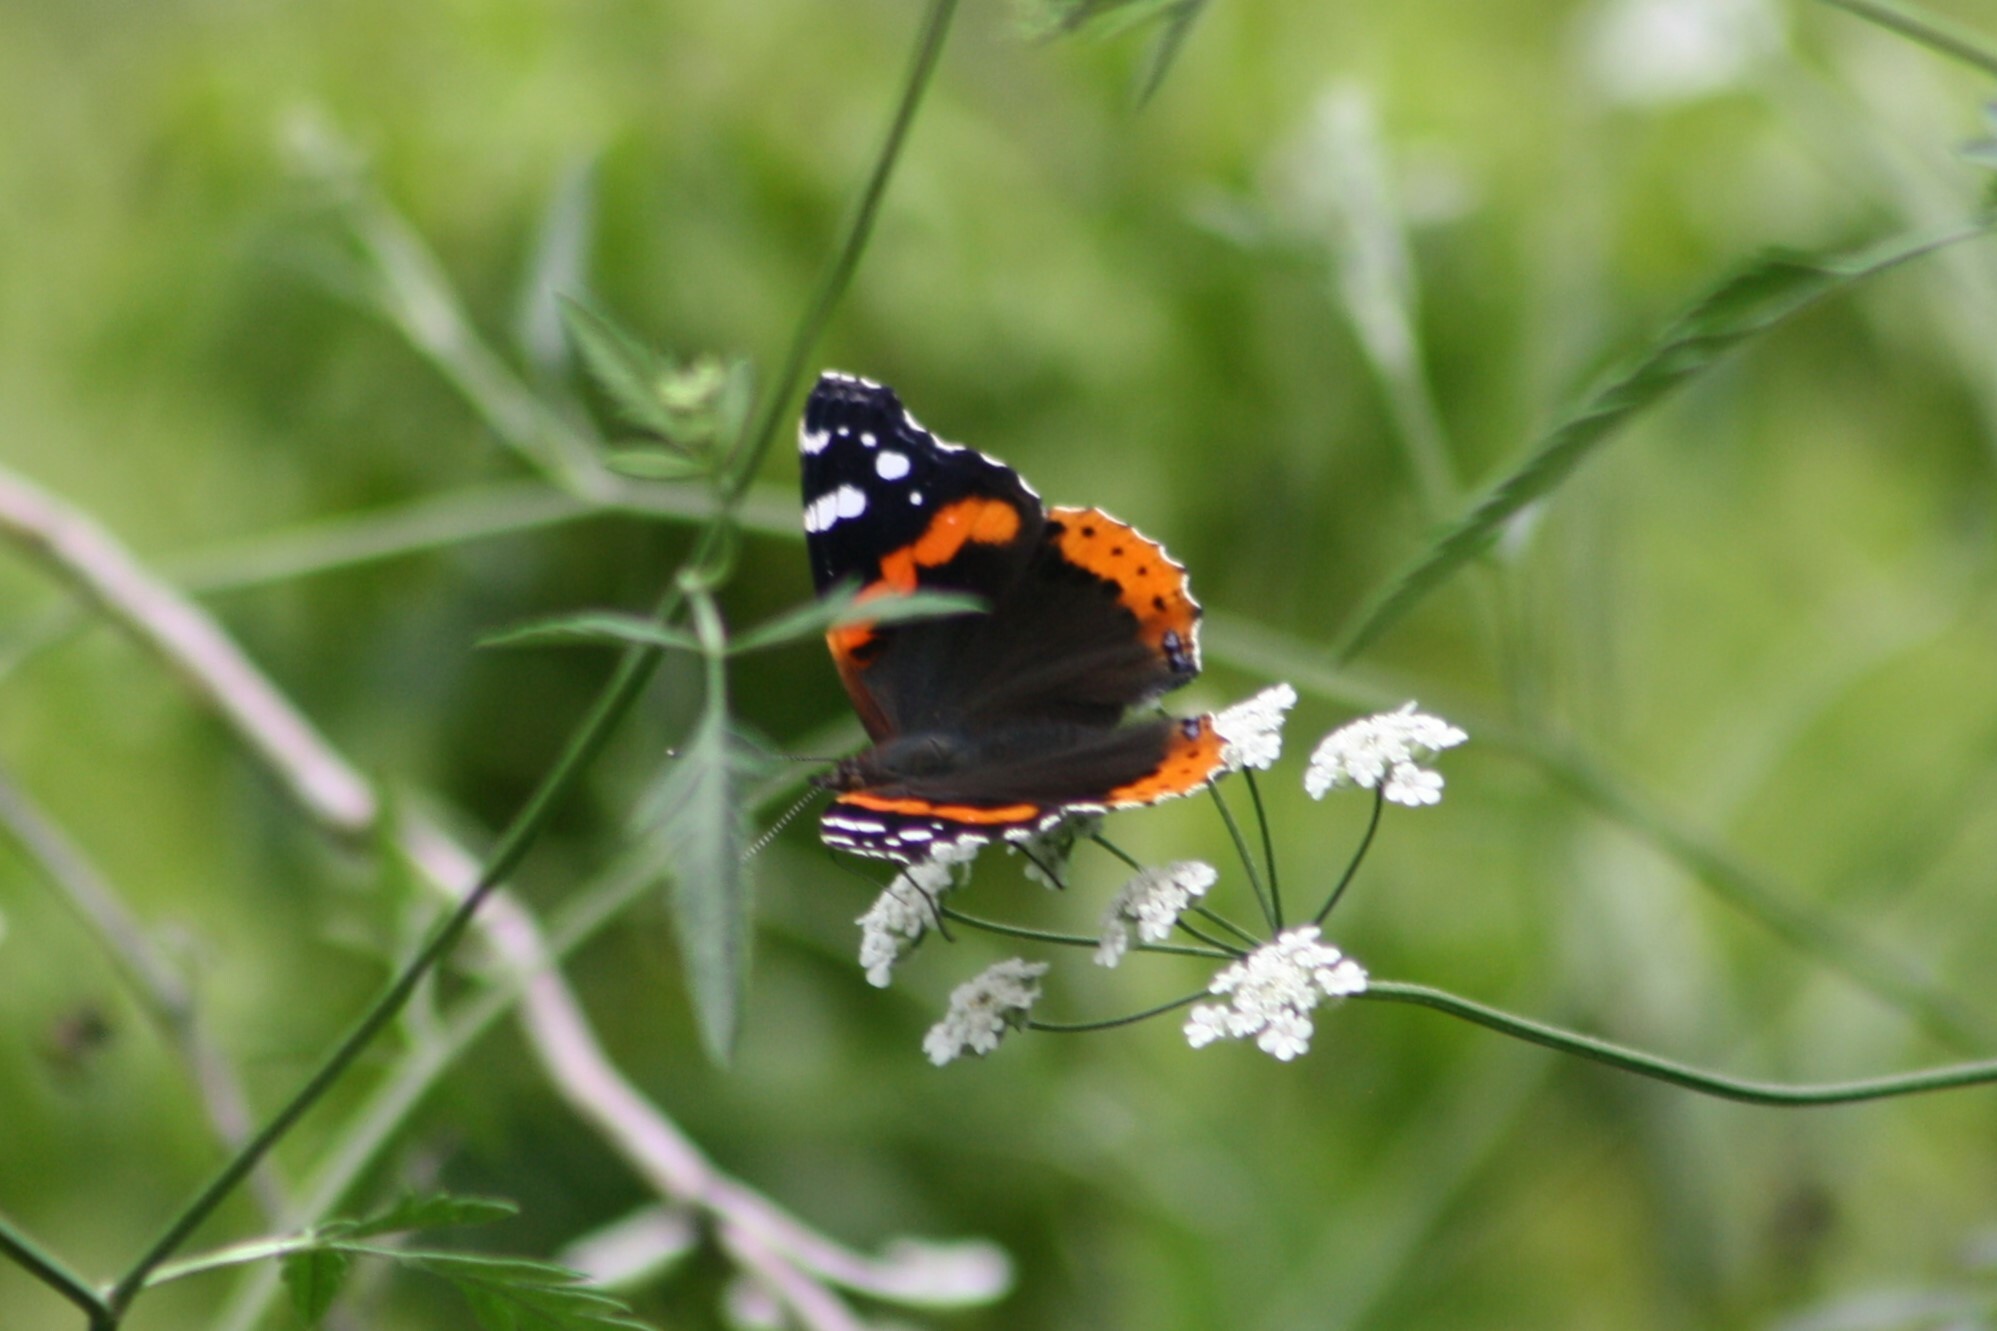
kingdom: Animalia
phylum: Arthropoda
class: Insecta
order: Lepidoptera
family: Nymphalidae
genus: Vanessa
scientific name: Vanessa atalanta
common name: Red admiral
